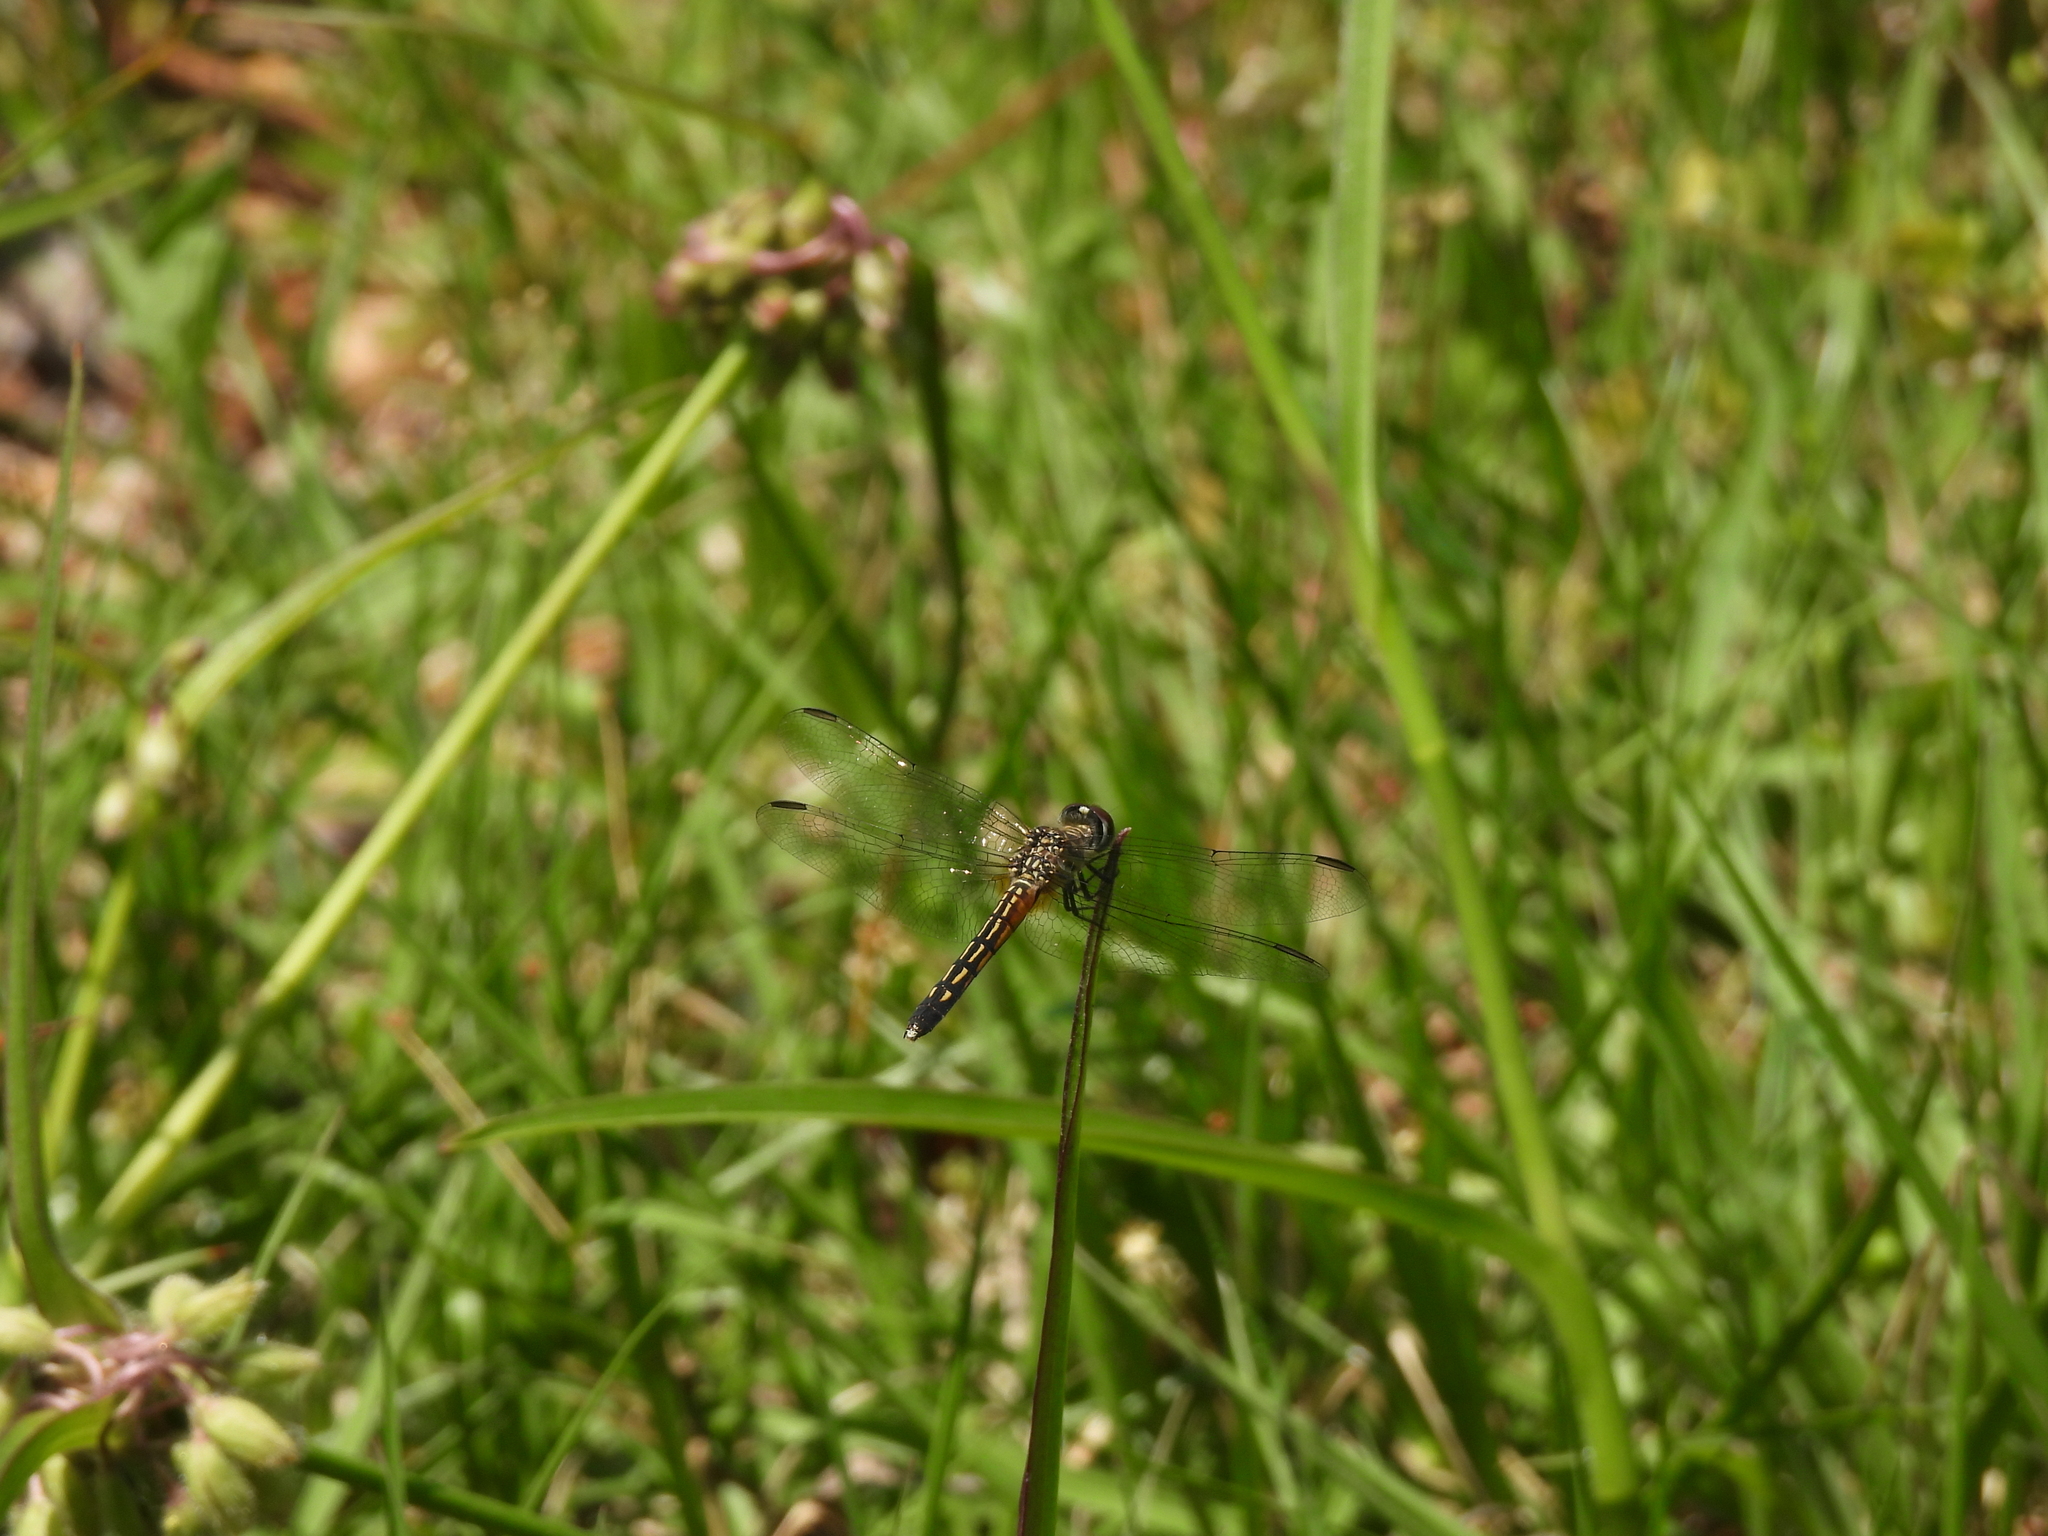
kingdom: Animalia
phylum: Arthropoda
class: Insecta
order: Odonata
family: Libellulidae
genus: Pachydiplax
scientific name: Pachydiplax longipennis
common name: Blue dasher
